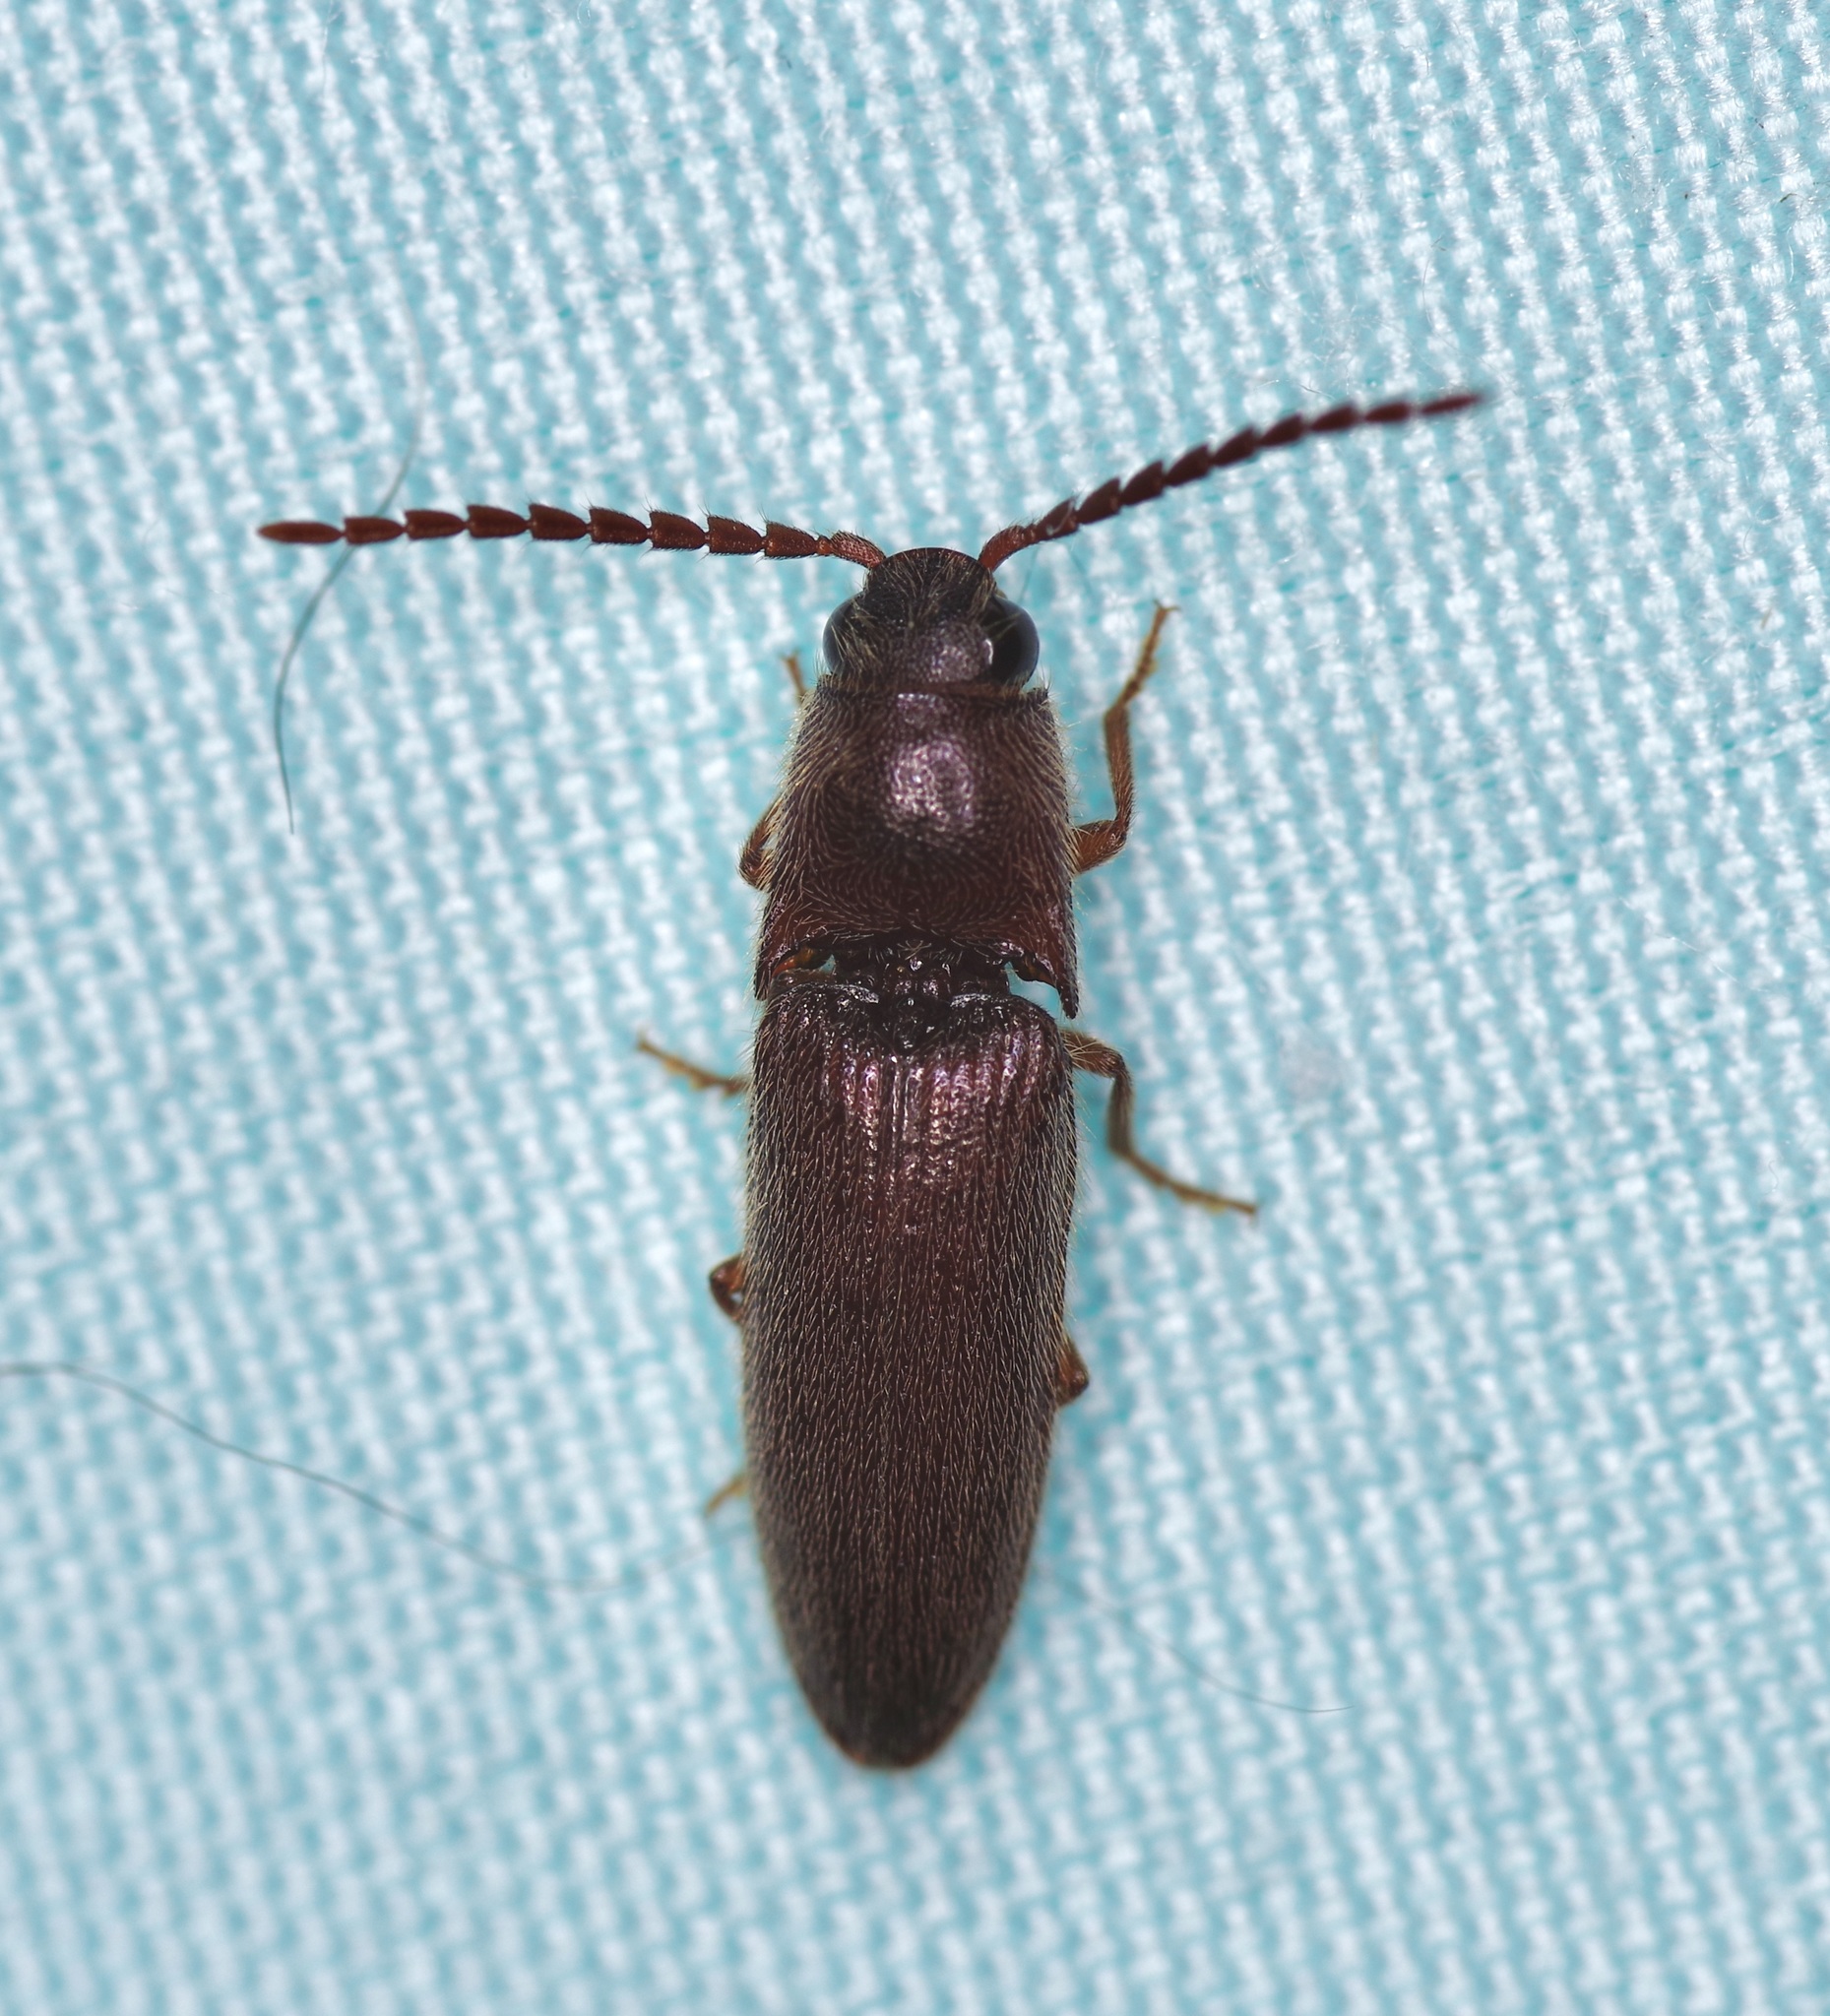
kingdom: Animalia
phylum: Arthropoda
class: Insecta
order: Coleoptera
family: Elateridae
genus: Dipropus
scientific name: Dipropus
